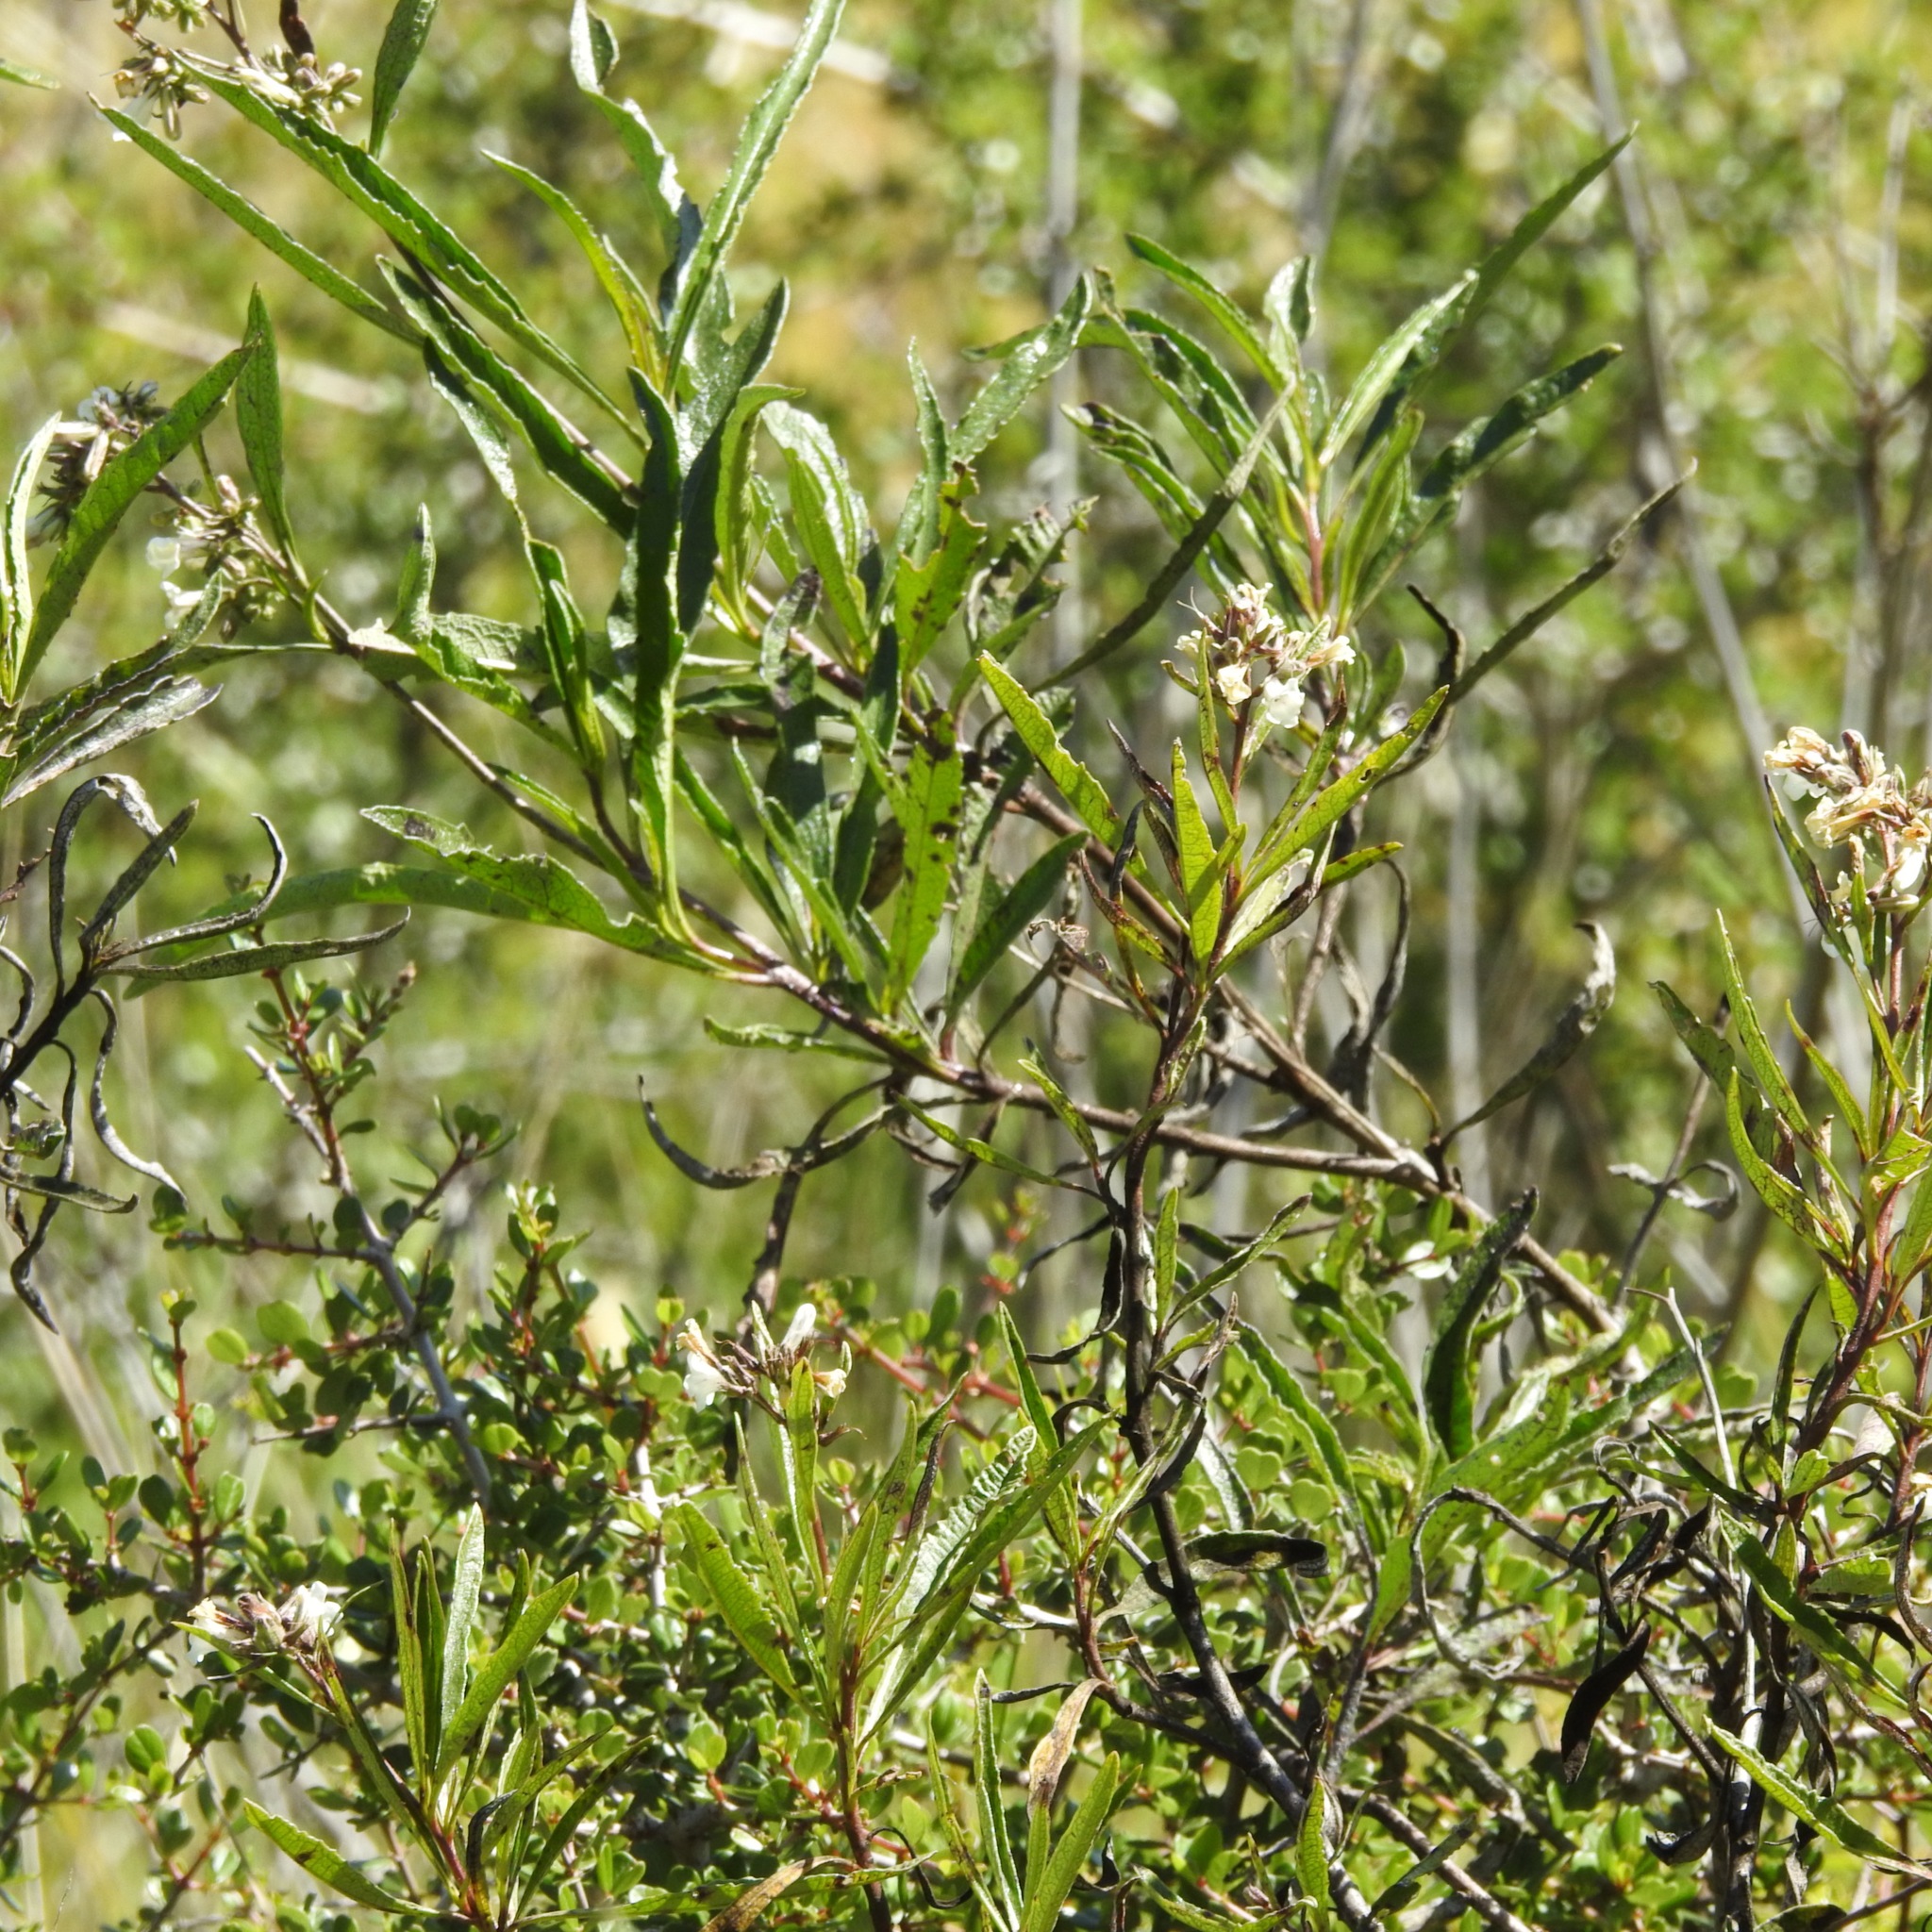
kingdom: Plantae
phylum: Tracheophyta
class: Magnoliopsida
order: Boraginales
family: Namaceae
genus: Eriodictyon
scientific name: Eriodictyon californicum
